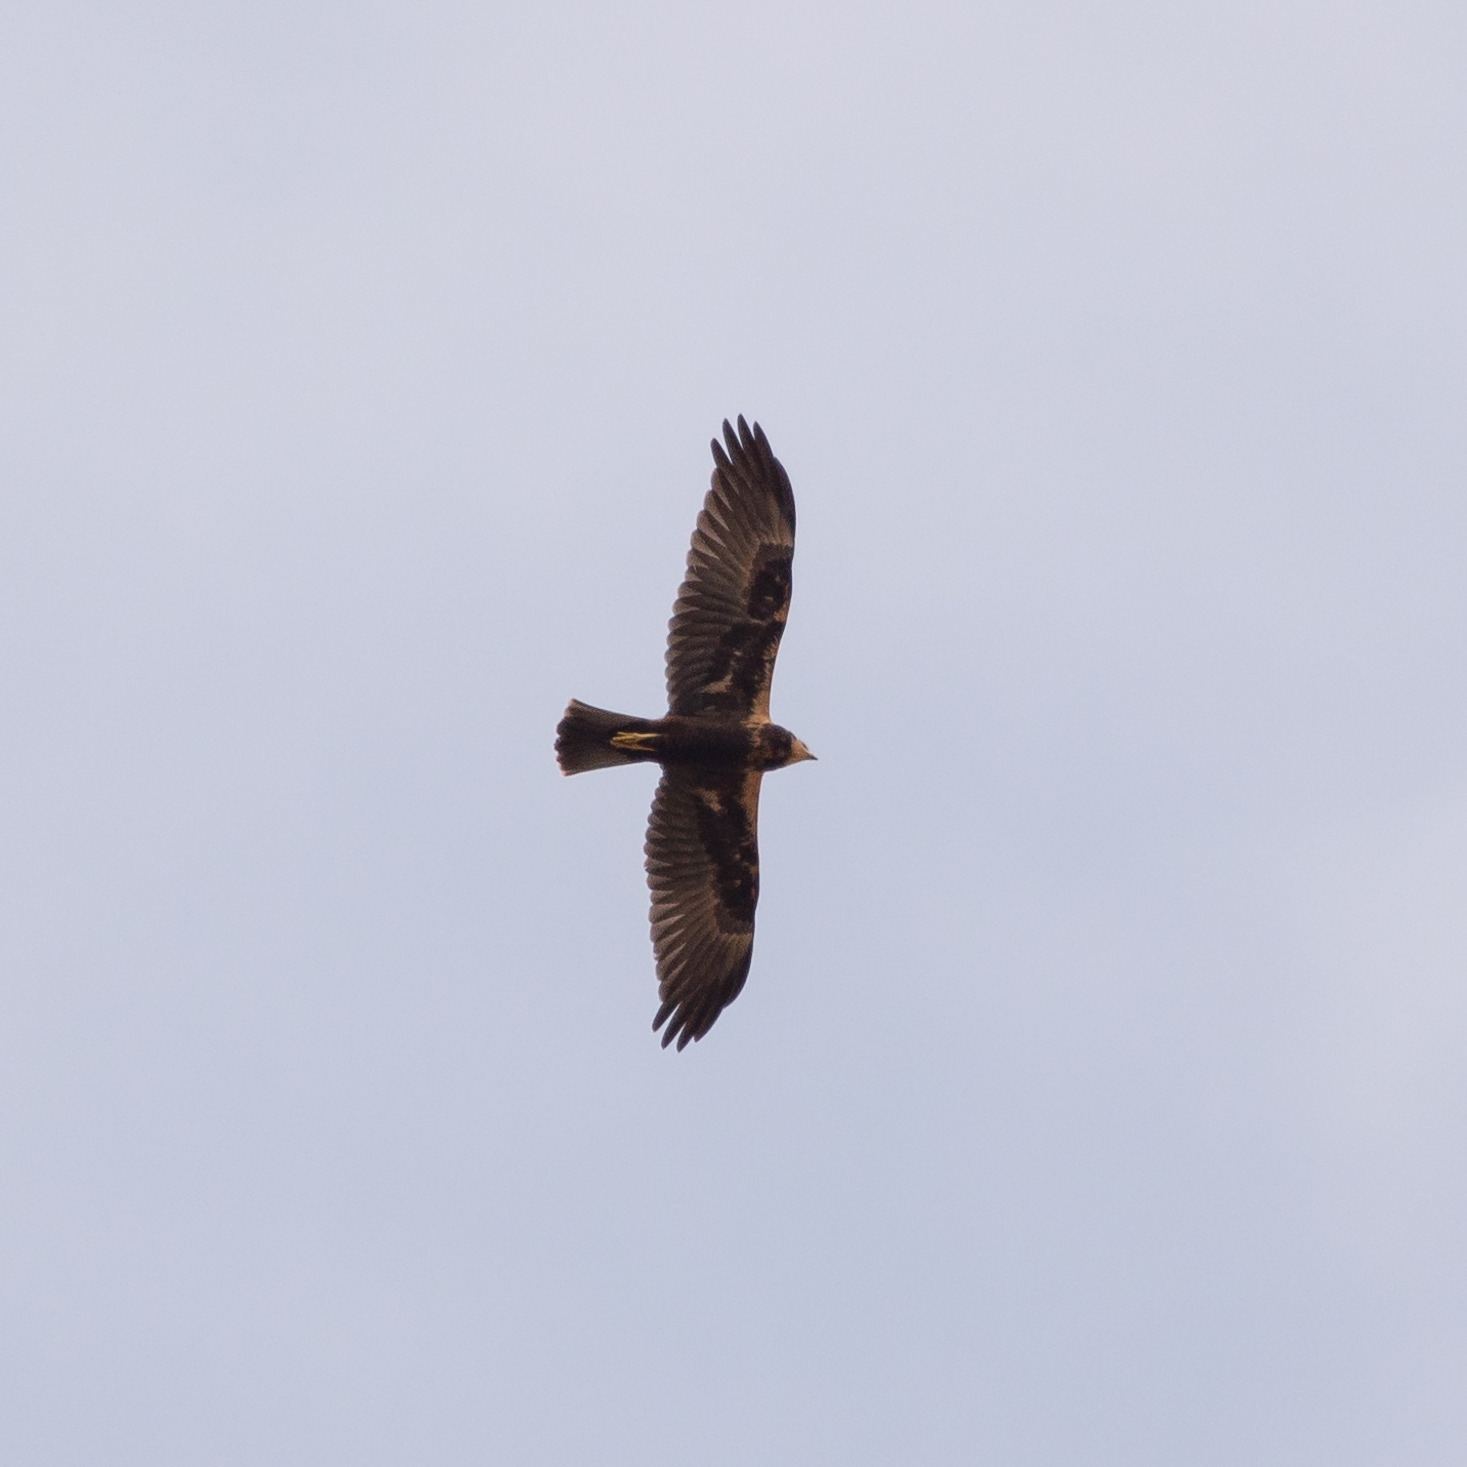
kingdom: Animalia
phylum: Chordata
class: Aves
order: Accipitriformes
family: Accipitridae
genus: Circus
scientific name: Circus aeruginosus
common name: Western marsh harrier
